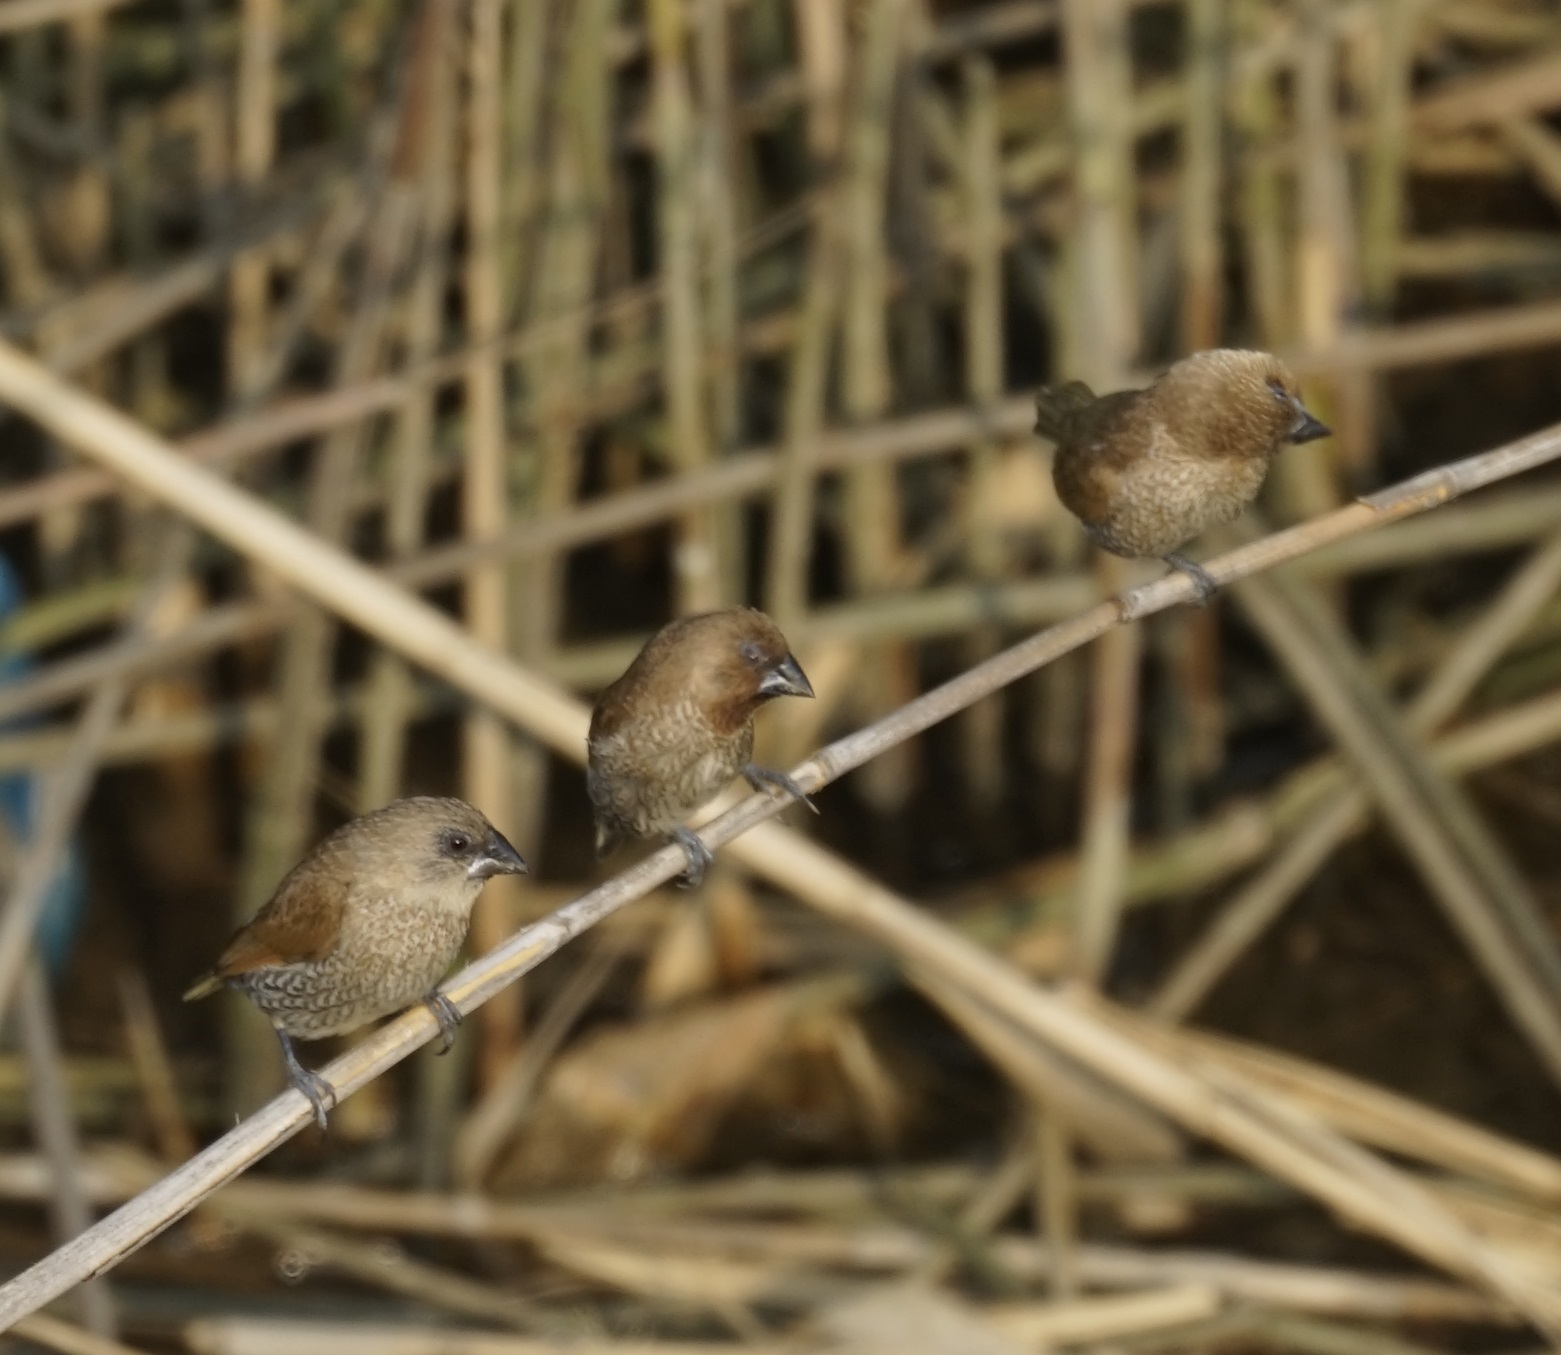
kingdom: Animalia
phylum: Chordata
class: Aves
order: Passeriformes
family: Estrildidae
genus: Lonchura
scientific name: Lonchura punctulata
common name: Scaly-breasted munia
